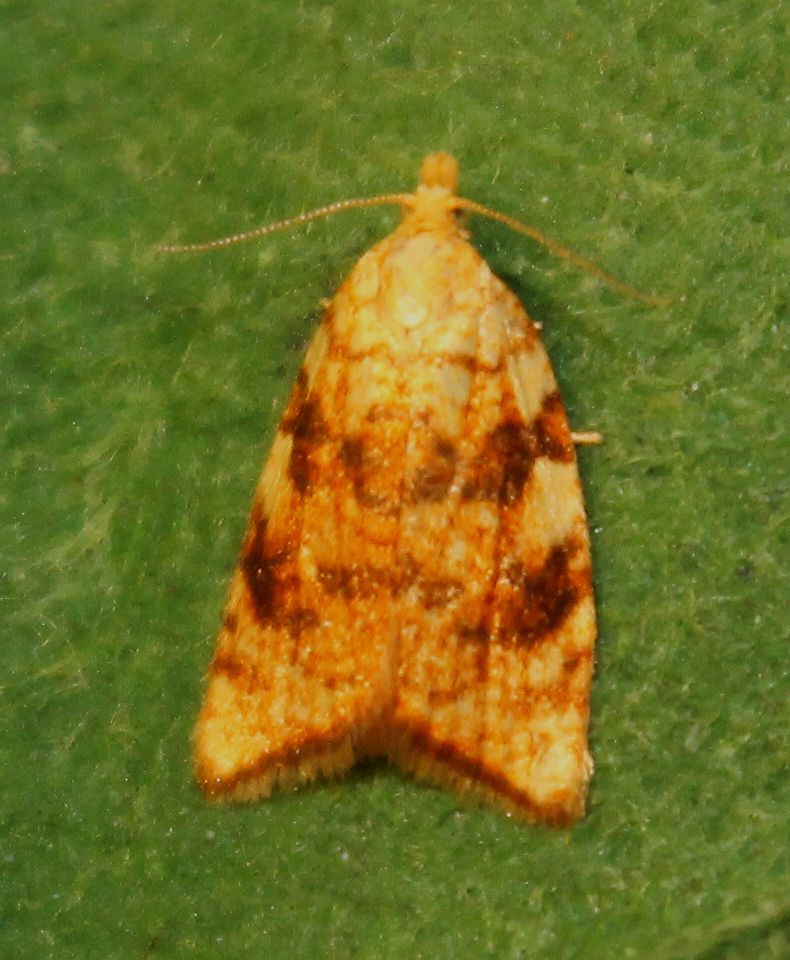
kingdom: Animalia
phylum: Arthropoda
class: Insecta
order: Lepidoptera
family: Tortricidae
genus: Aleimma
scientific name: Aleimma loeflingiana
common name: Yellow oak button
